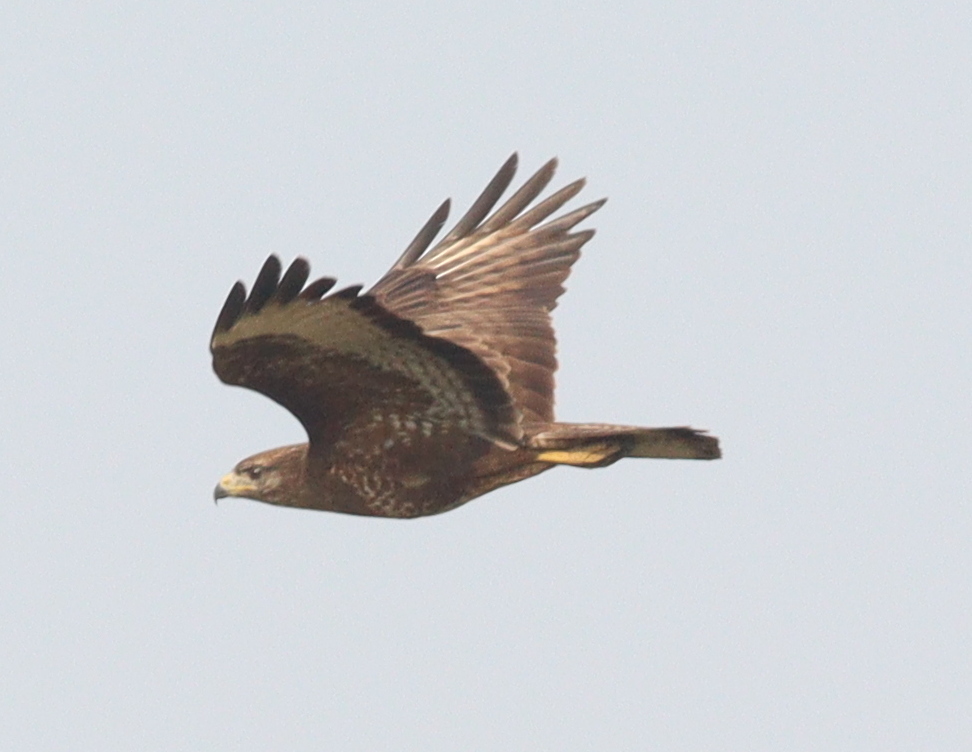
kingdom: Animalia
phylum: Chordata
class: Aves
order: Accipitriformes
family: Accipitridae
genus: Buteo
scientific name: Buteo buteo
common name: Common buzzard
